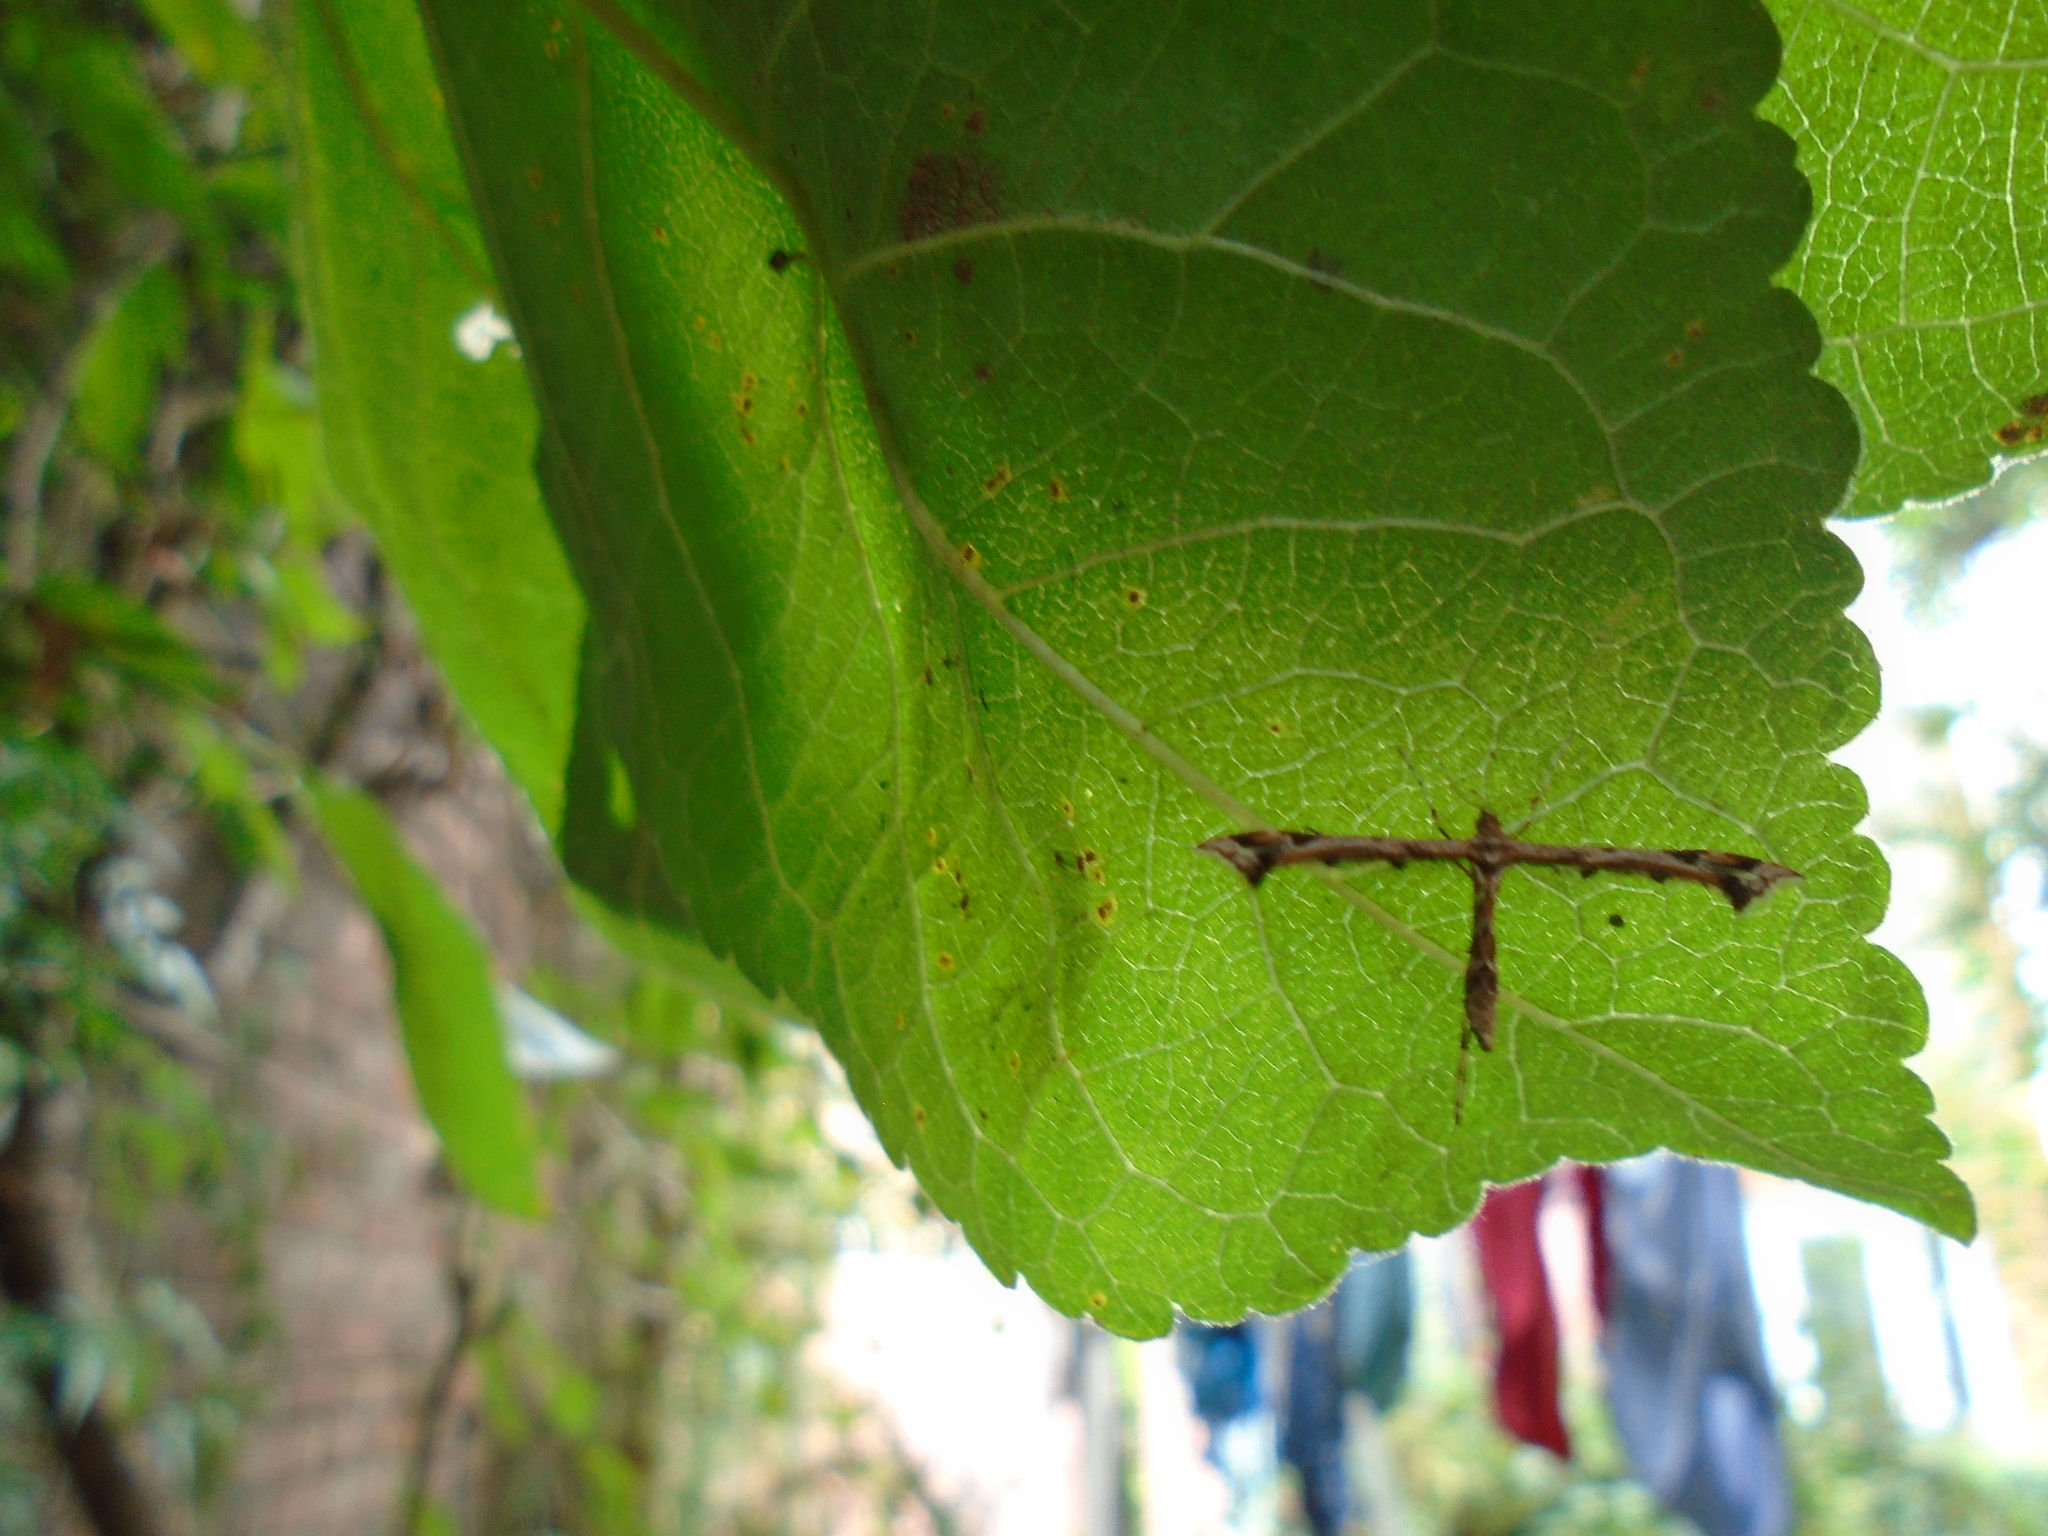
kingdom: Animalia
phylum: Arthropoda
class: Insecta
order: Lepidoptera
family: Pterophoridae
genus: Amblyptilia
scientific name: Amblyptilia acanthadactyla
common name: Beautiful plume
